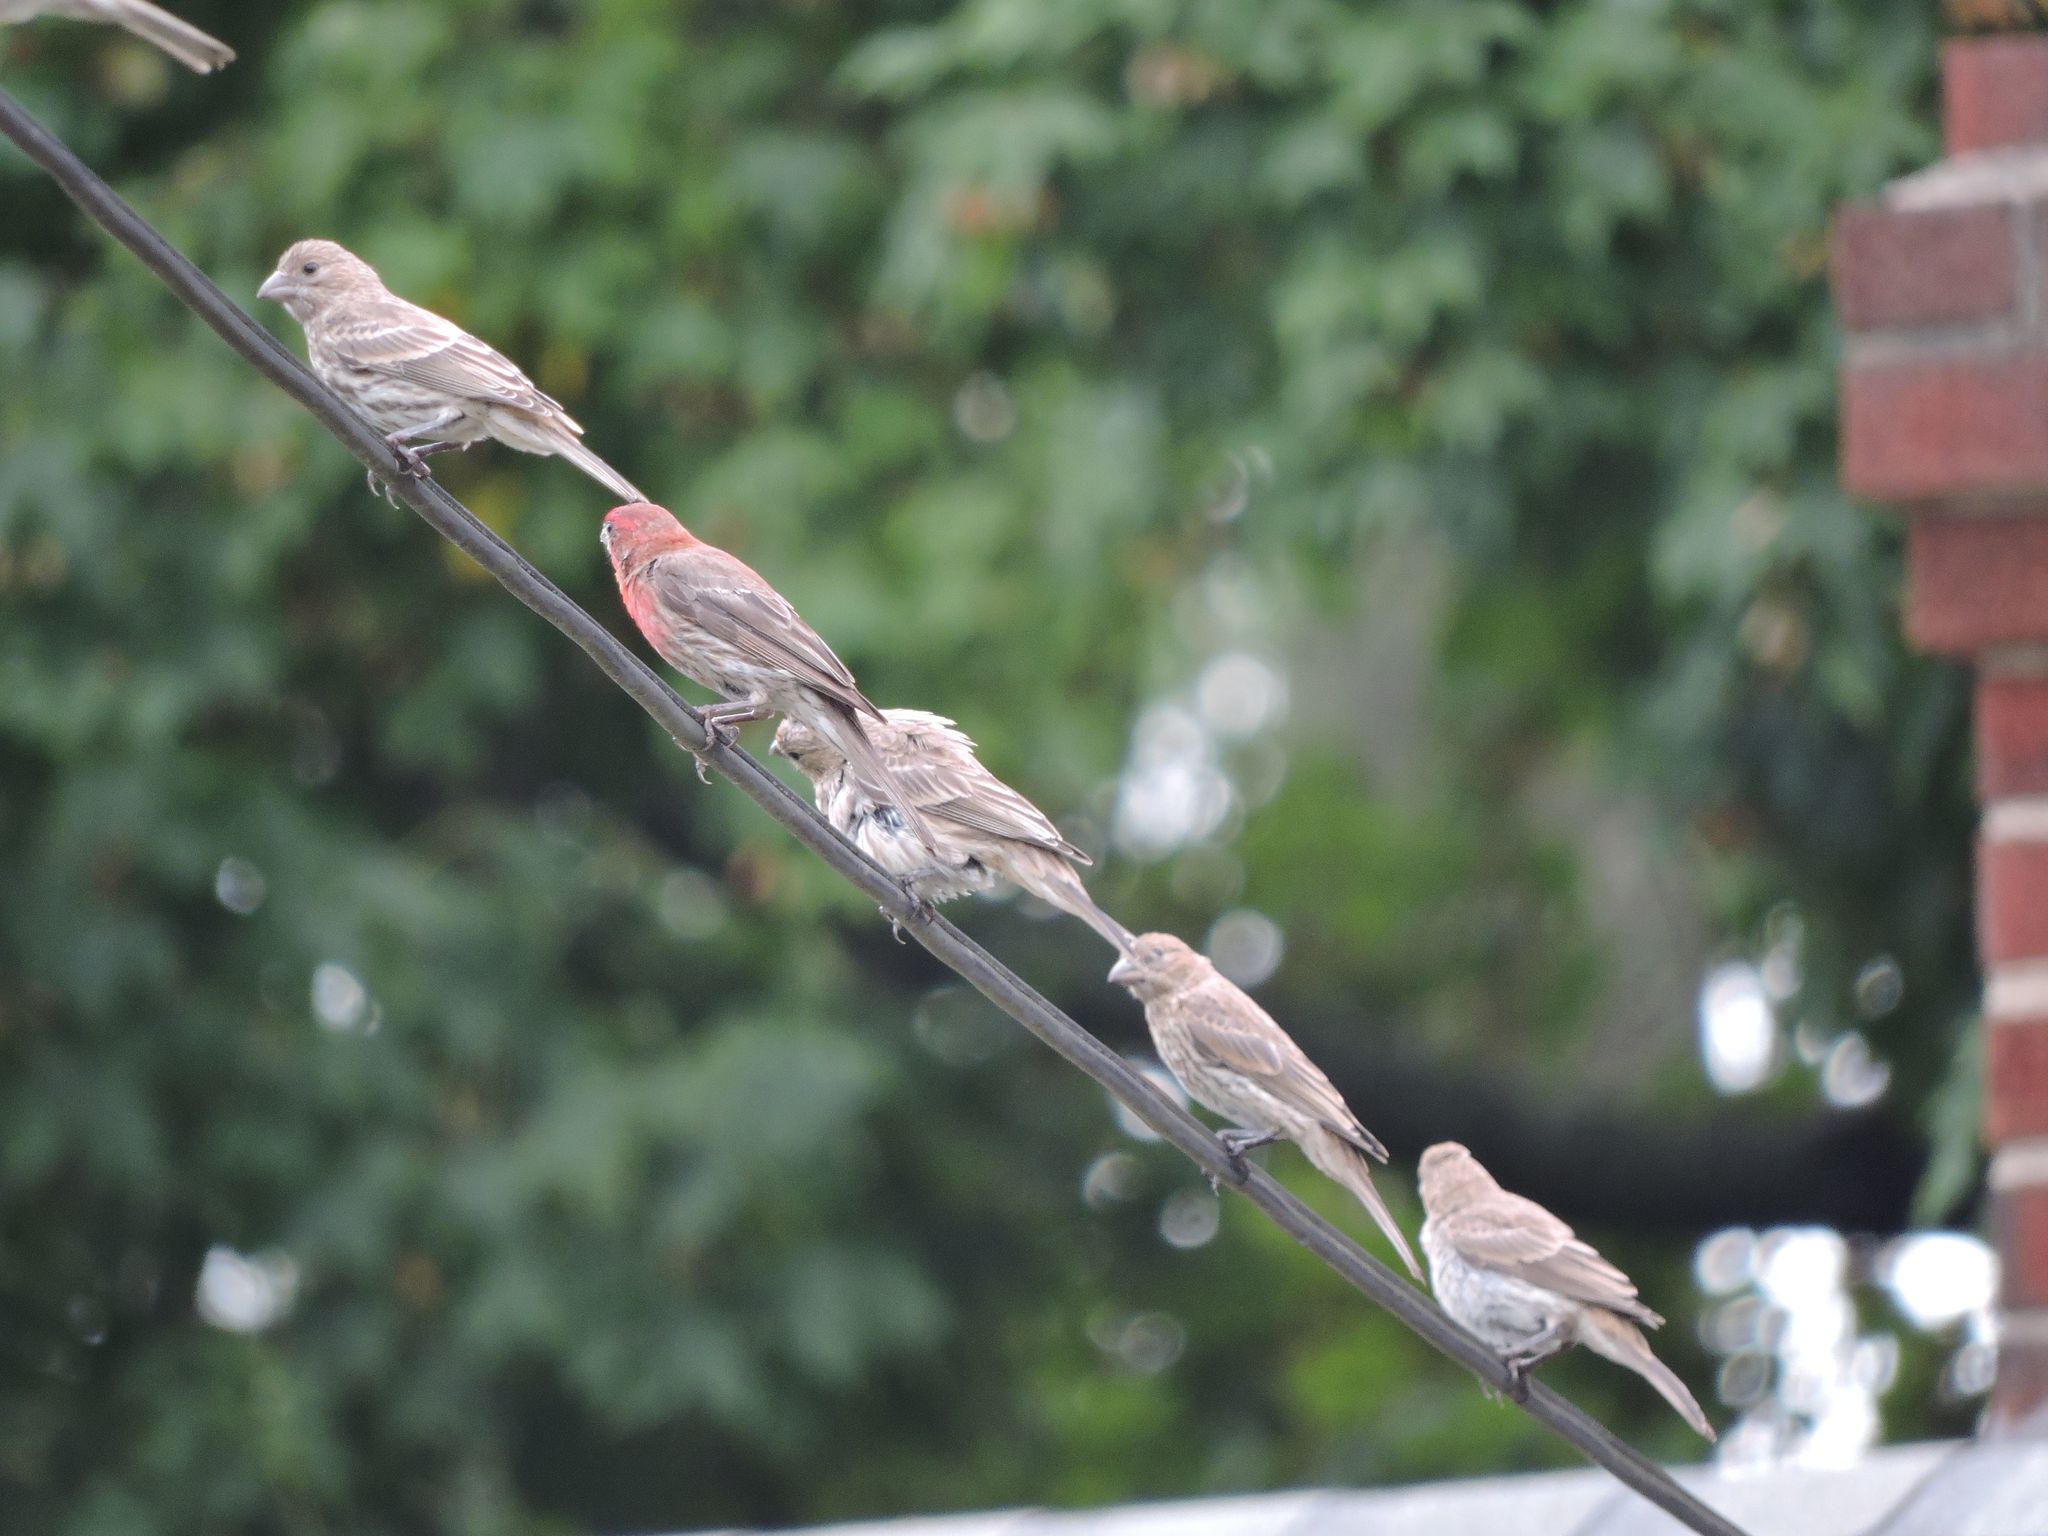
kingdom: Animalia
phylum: Chordata
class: Aves
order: Passeriformes
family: Fringillidae
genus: Haemorhous
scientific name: Haemorhous mexicanus
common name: House finch
